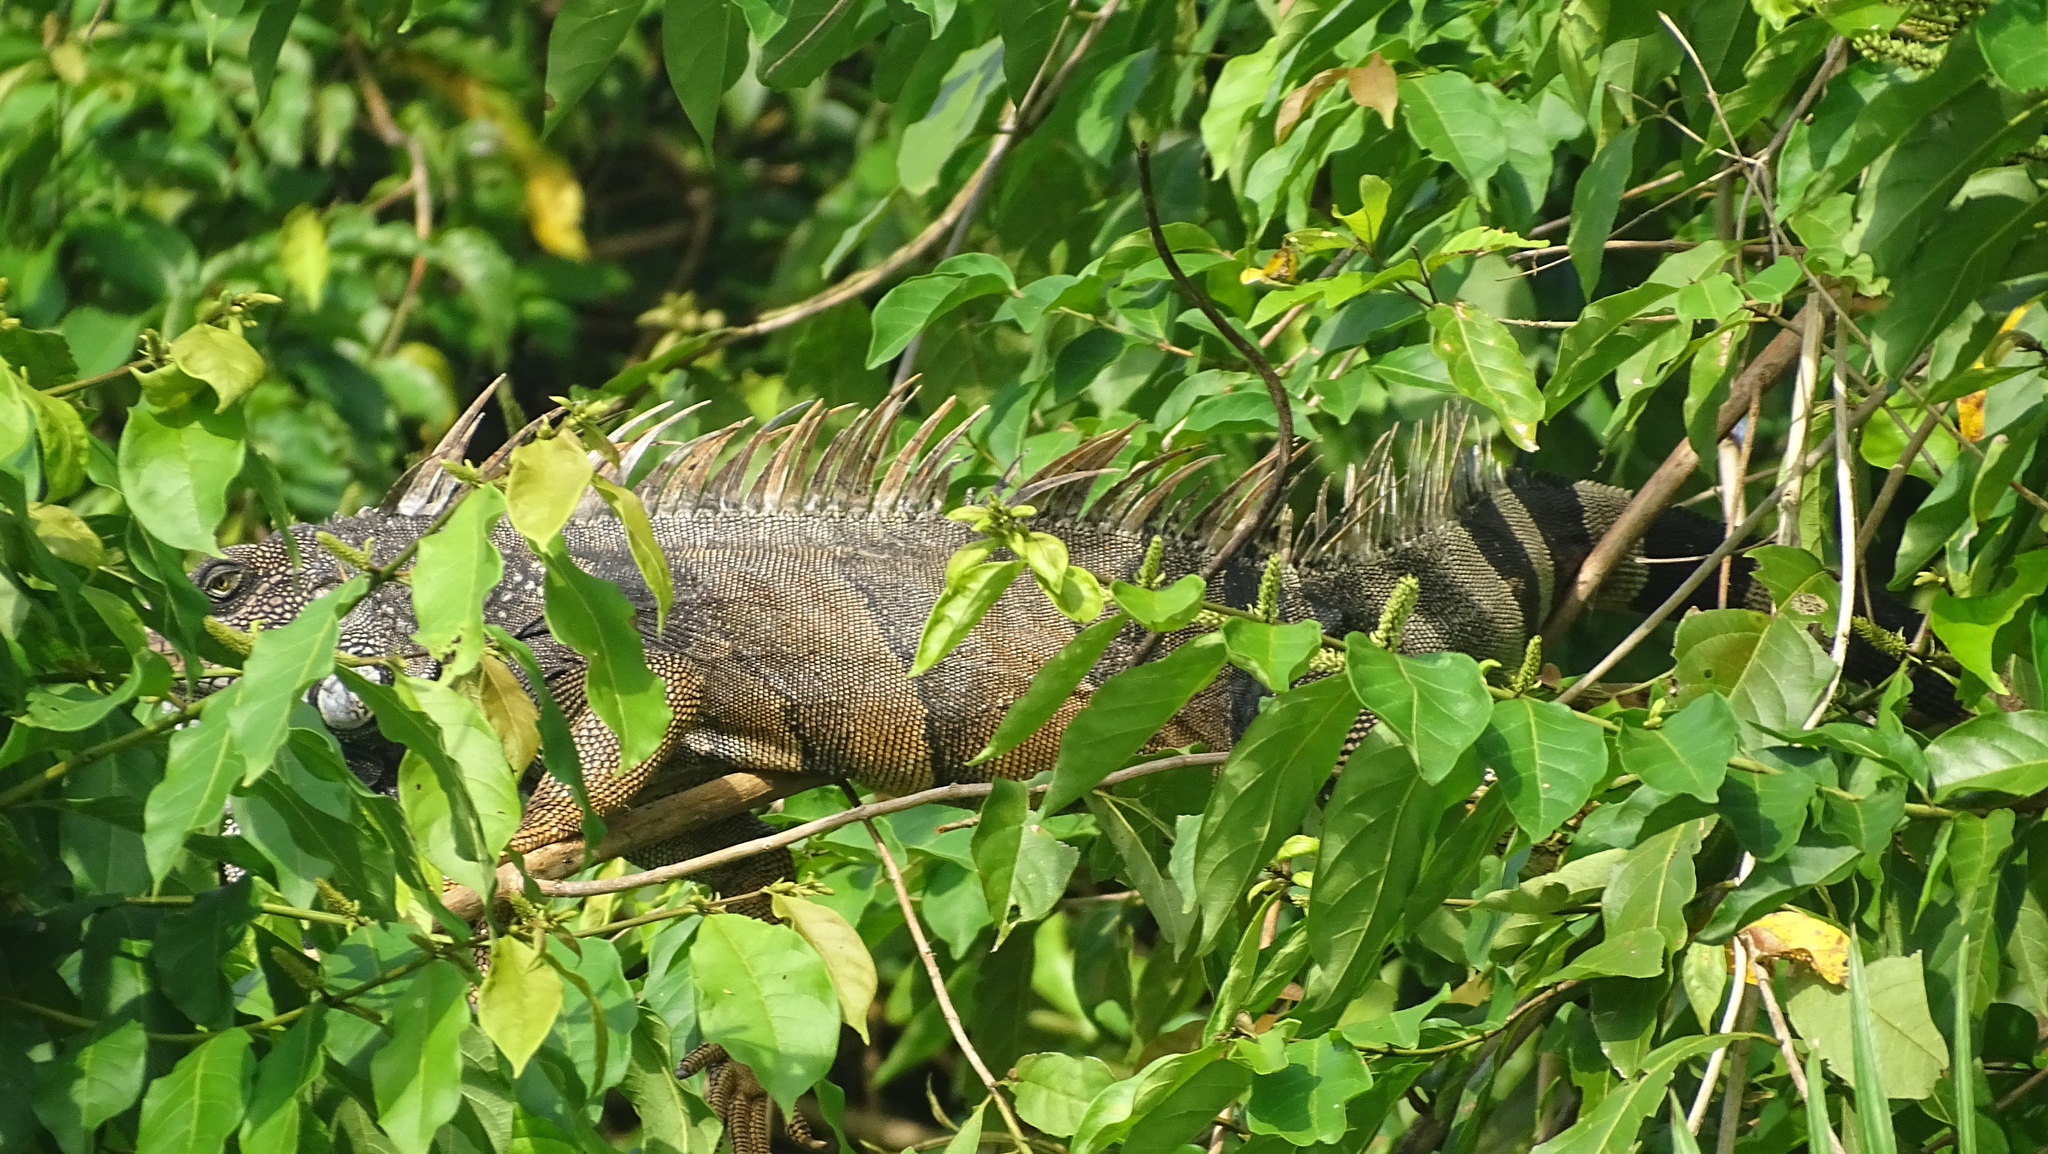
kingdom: Animalia
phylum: Chordata
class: Squamata
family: Iguanidae
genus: Iguana
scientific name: Iguana iguana
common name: Green iguana
